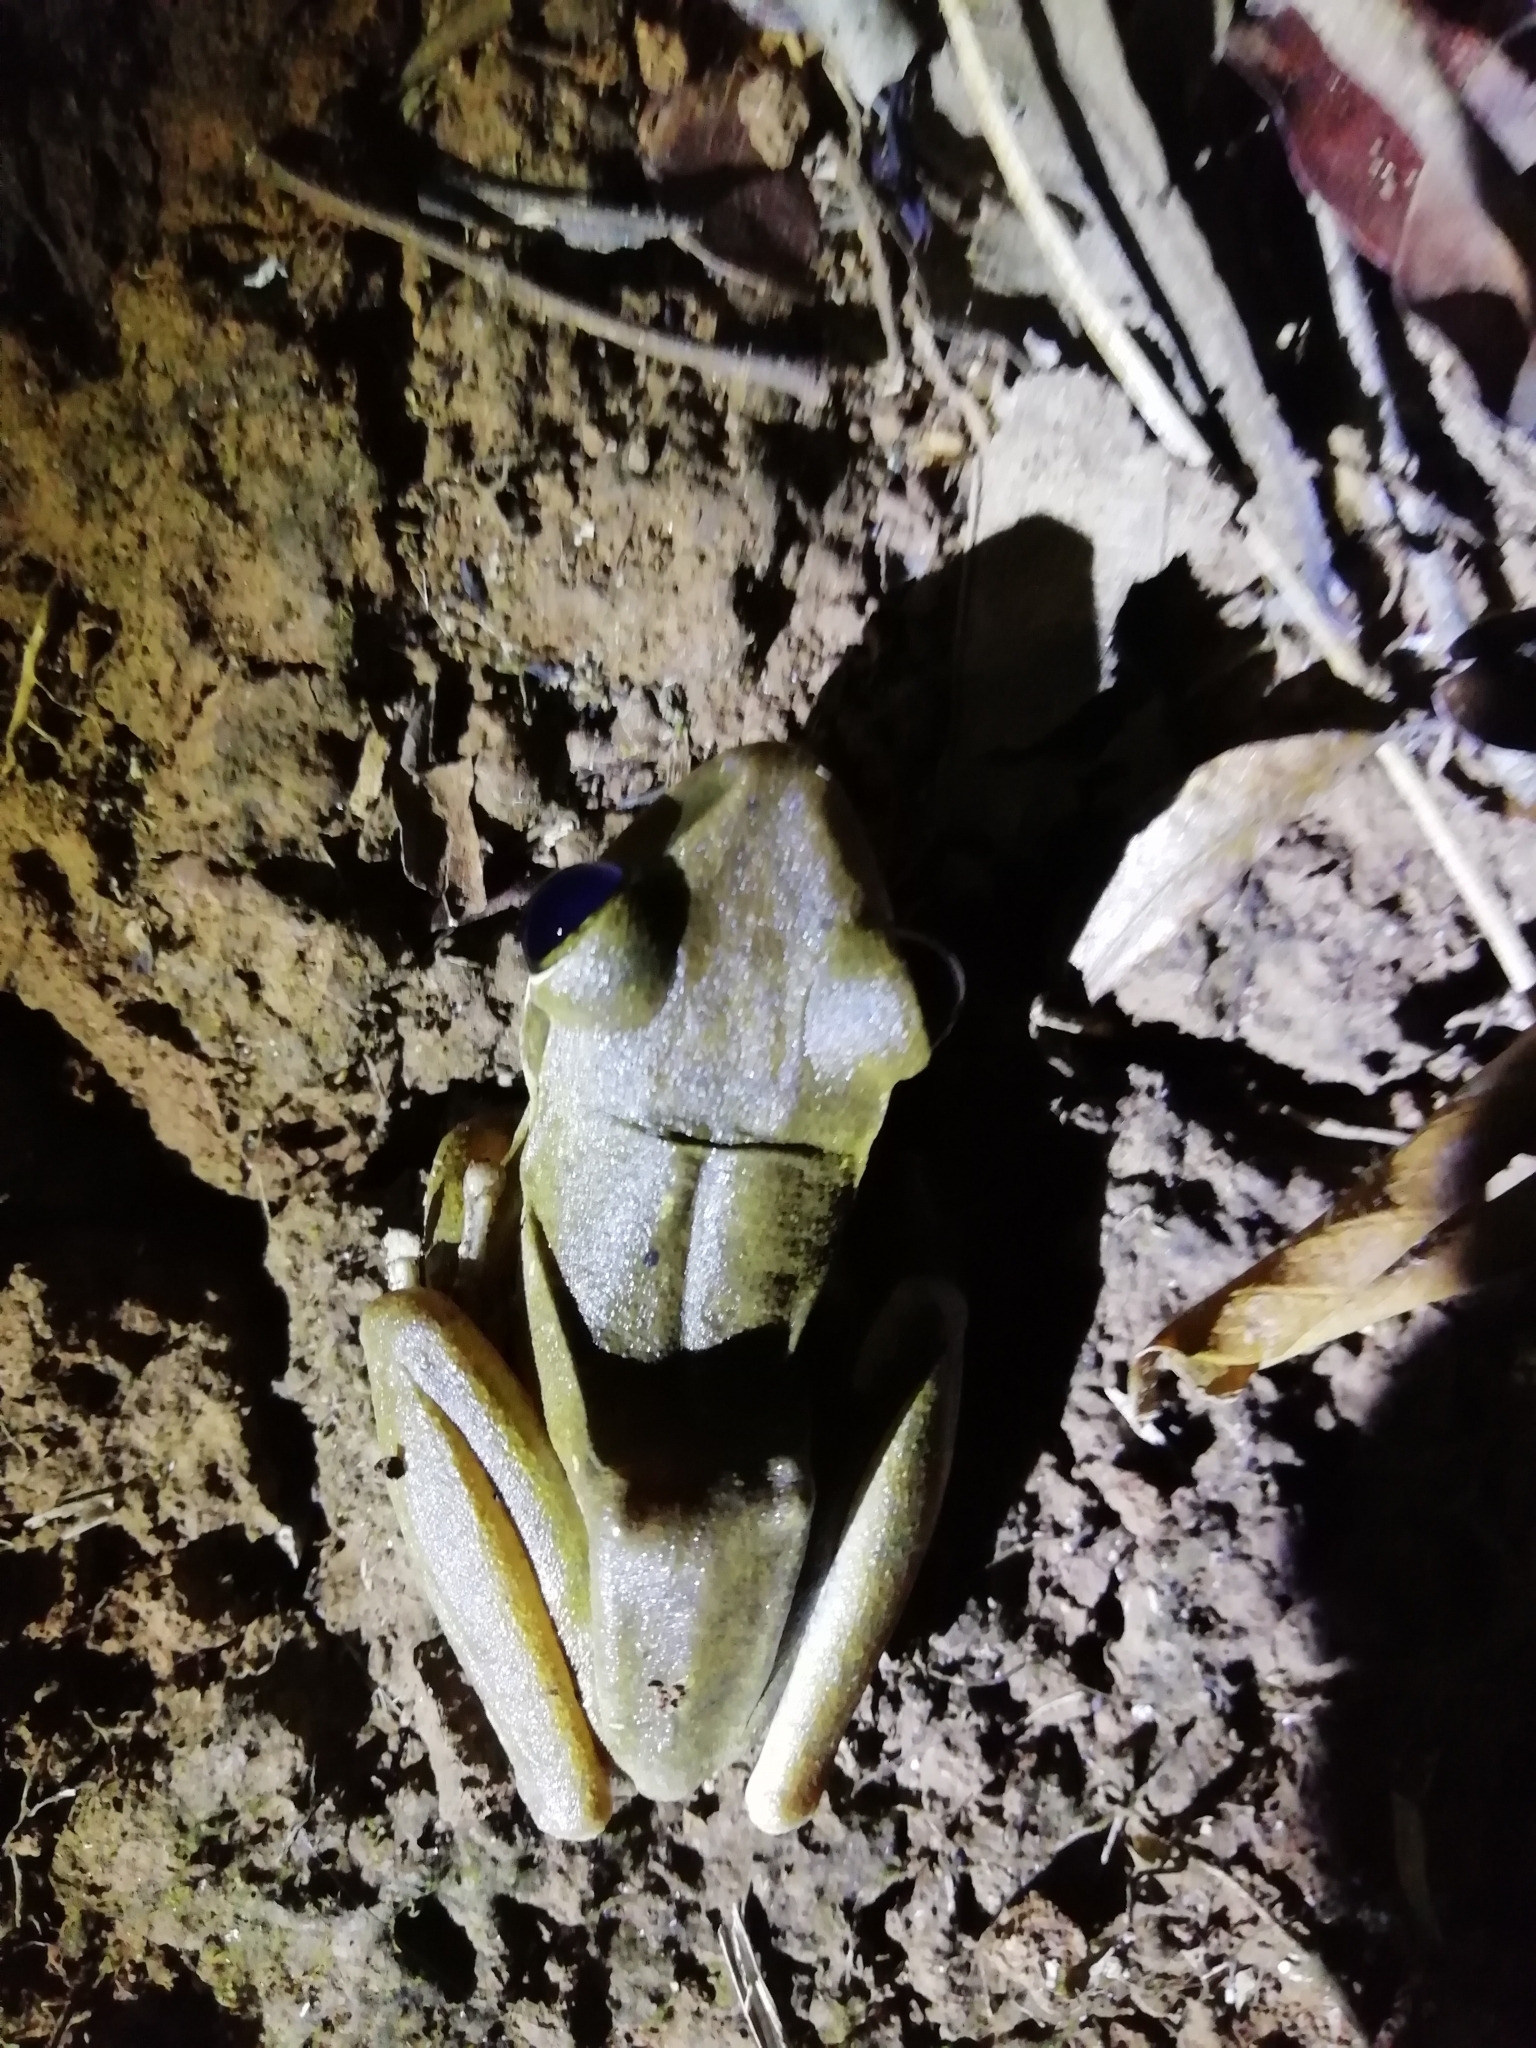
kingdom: Animalia
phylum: Chordata
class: Amphibia
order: Anura
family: Rhacophoridae
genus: Polypedates
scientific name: Polypedates megacephalus
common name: Hong kong whipping frog
